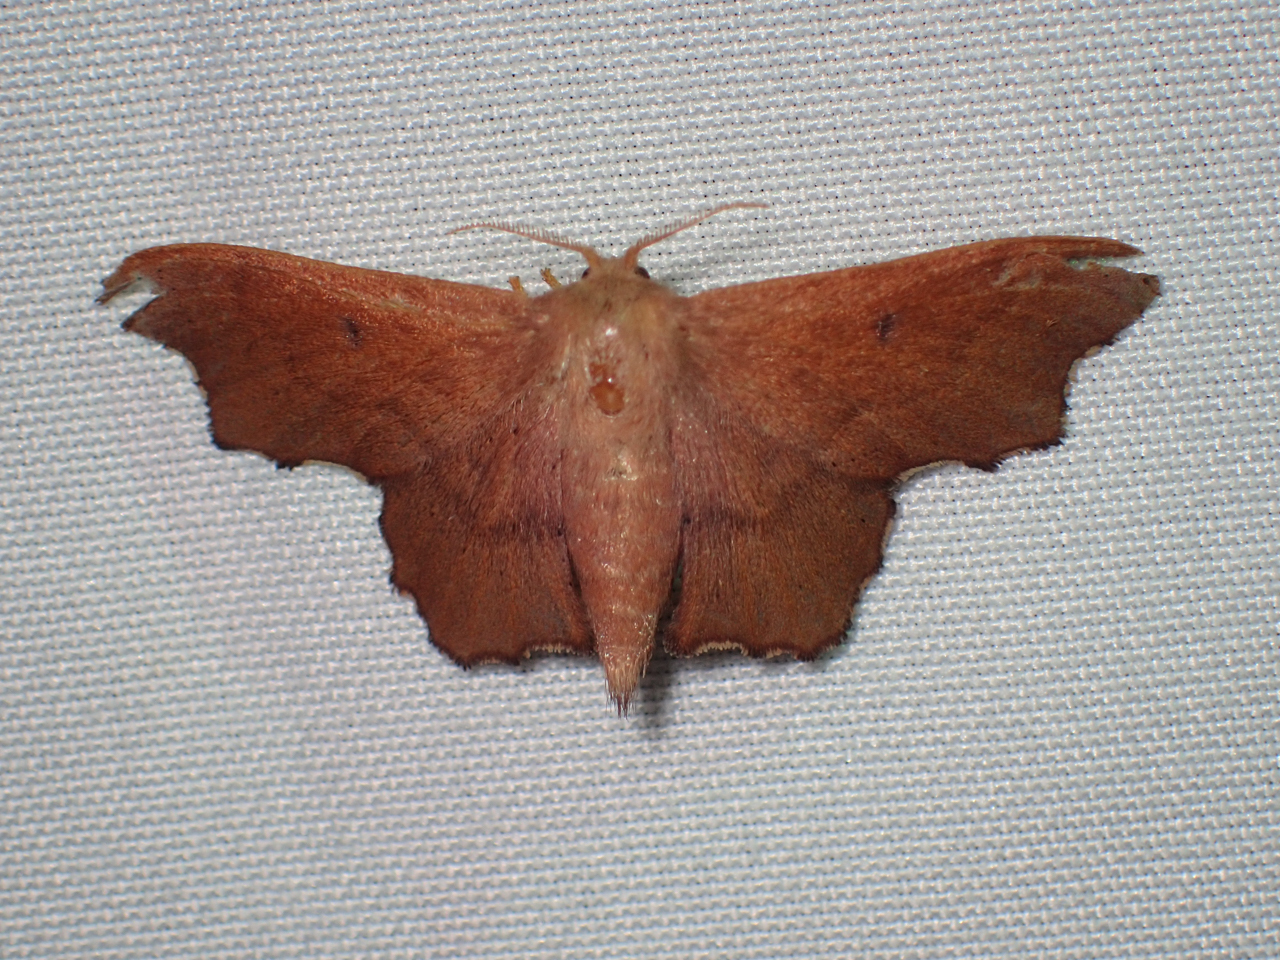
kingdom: Animalia
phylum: Arthropoda
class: Insecta
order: Lepidoptera
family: Mimallonidae
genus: Lacosoma
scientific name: Lacosoma chiridota
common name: Scalloped sack-bearer moth
